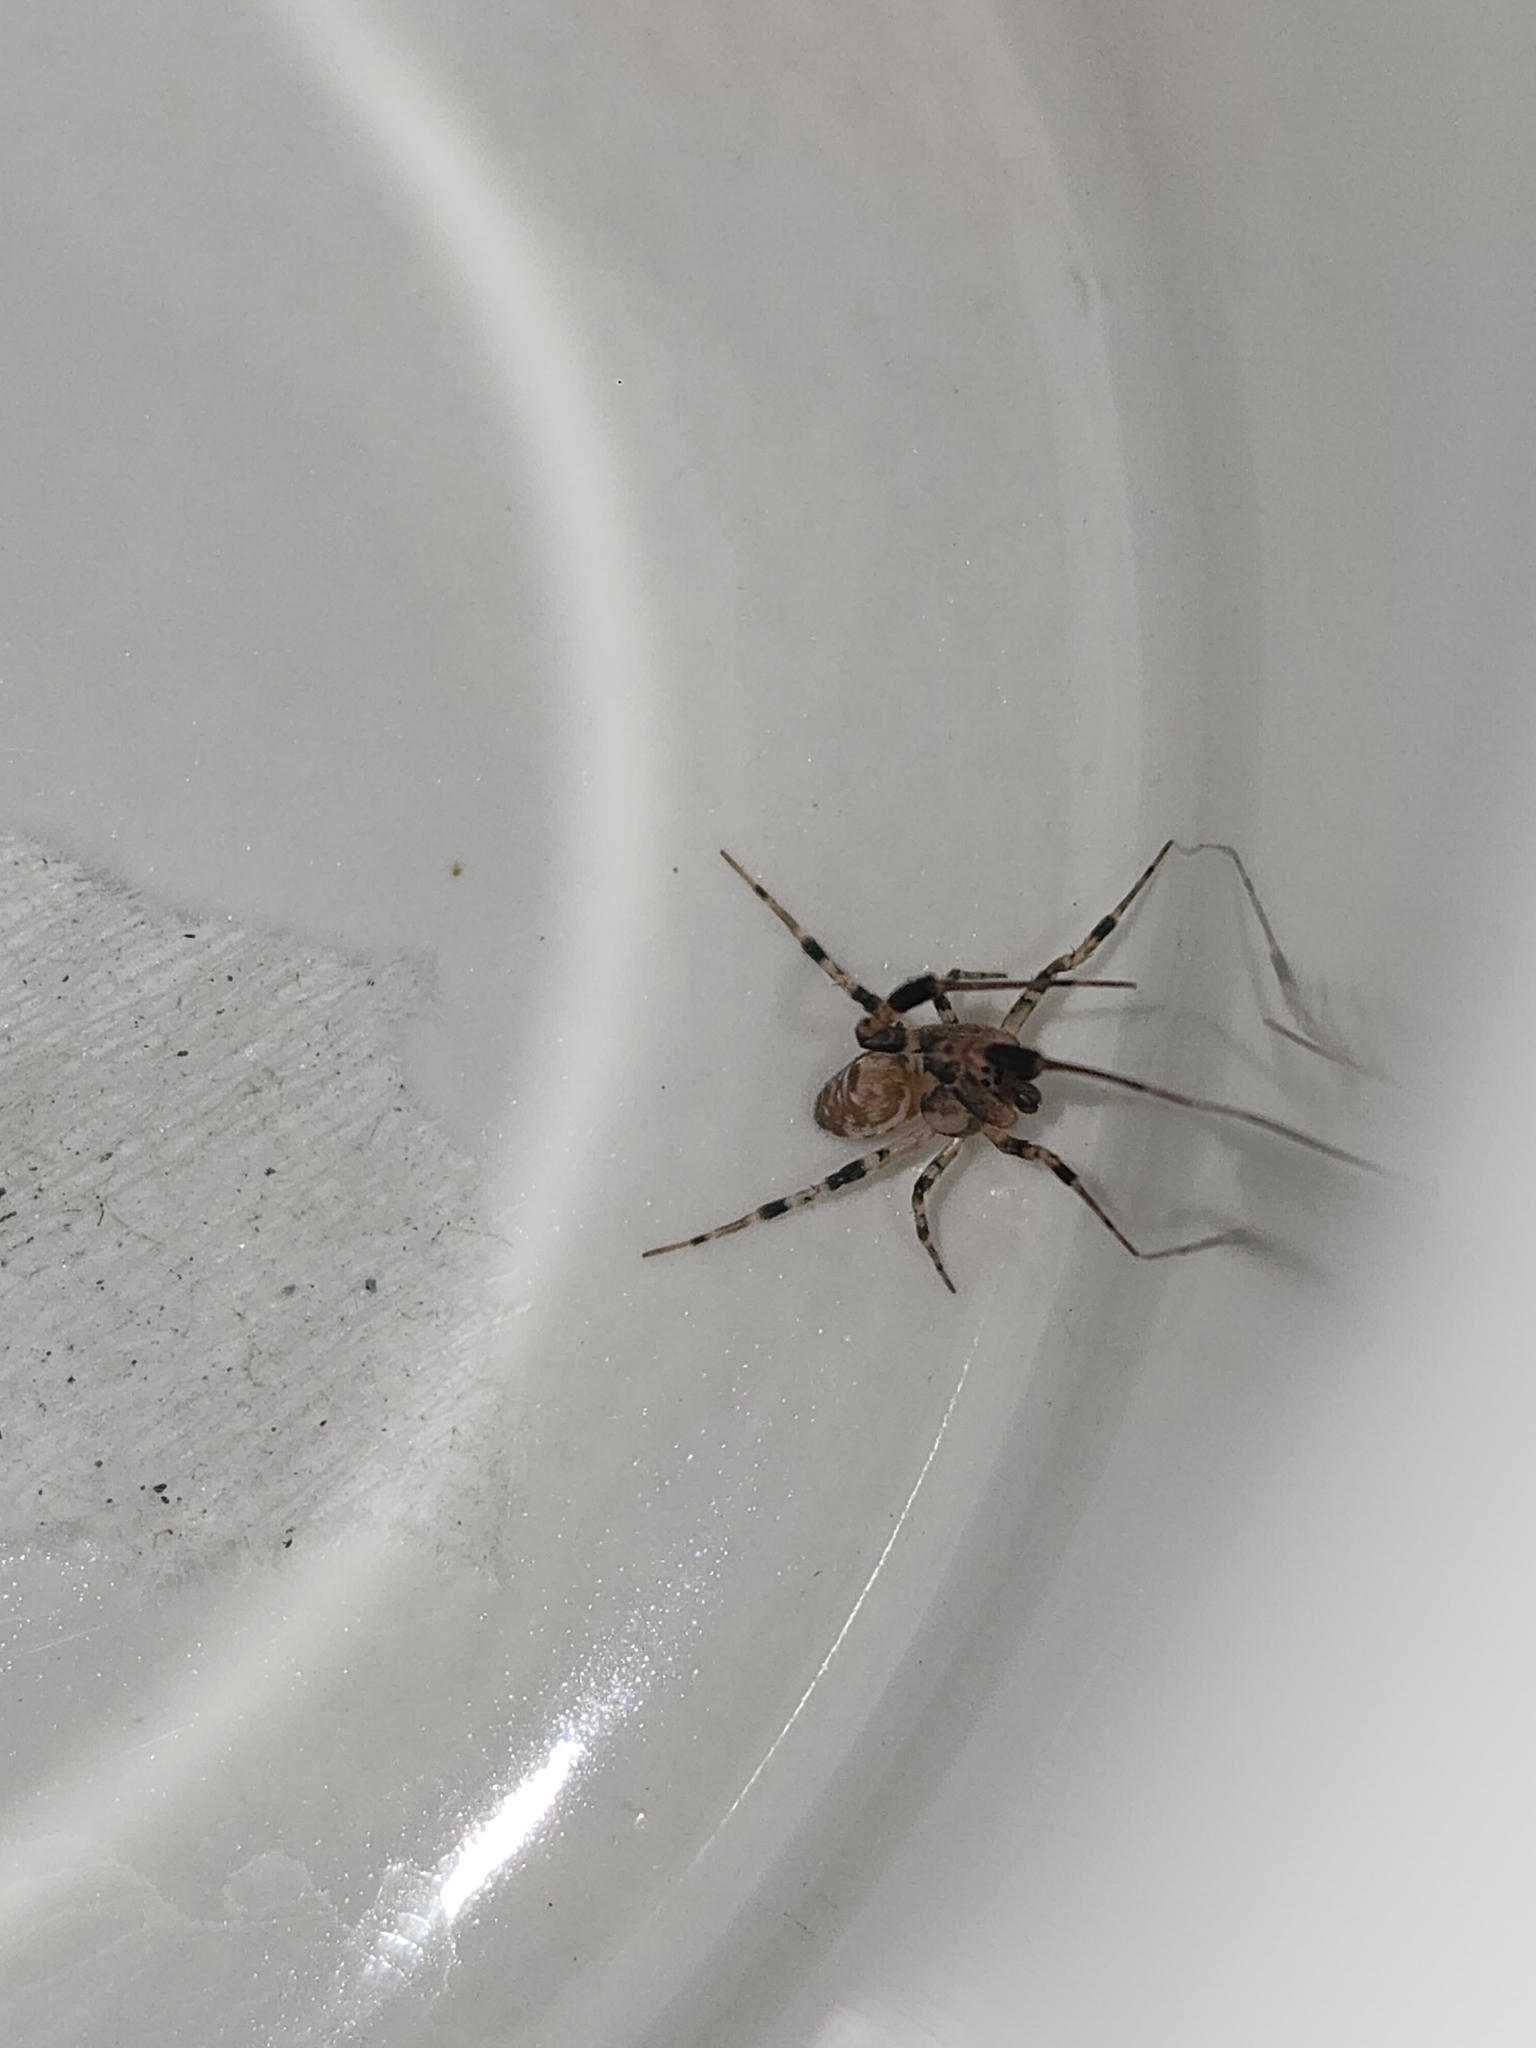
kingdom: Animalia
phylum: Arthropoda
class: Arachnida
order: Araneae
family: Uloboridae
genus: Zosis
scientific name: Zosis geniculata
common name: Hackled orb weavers
